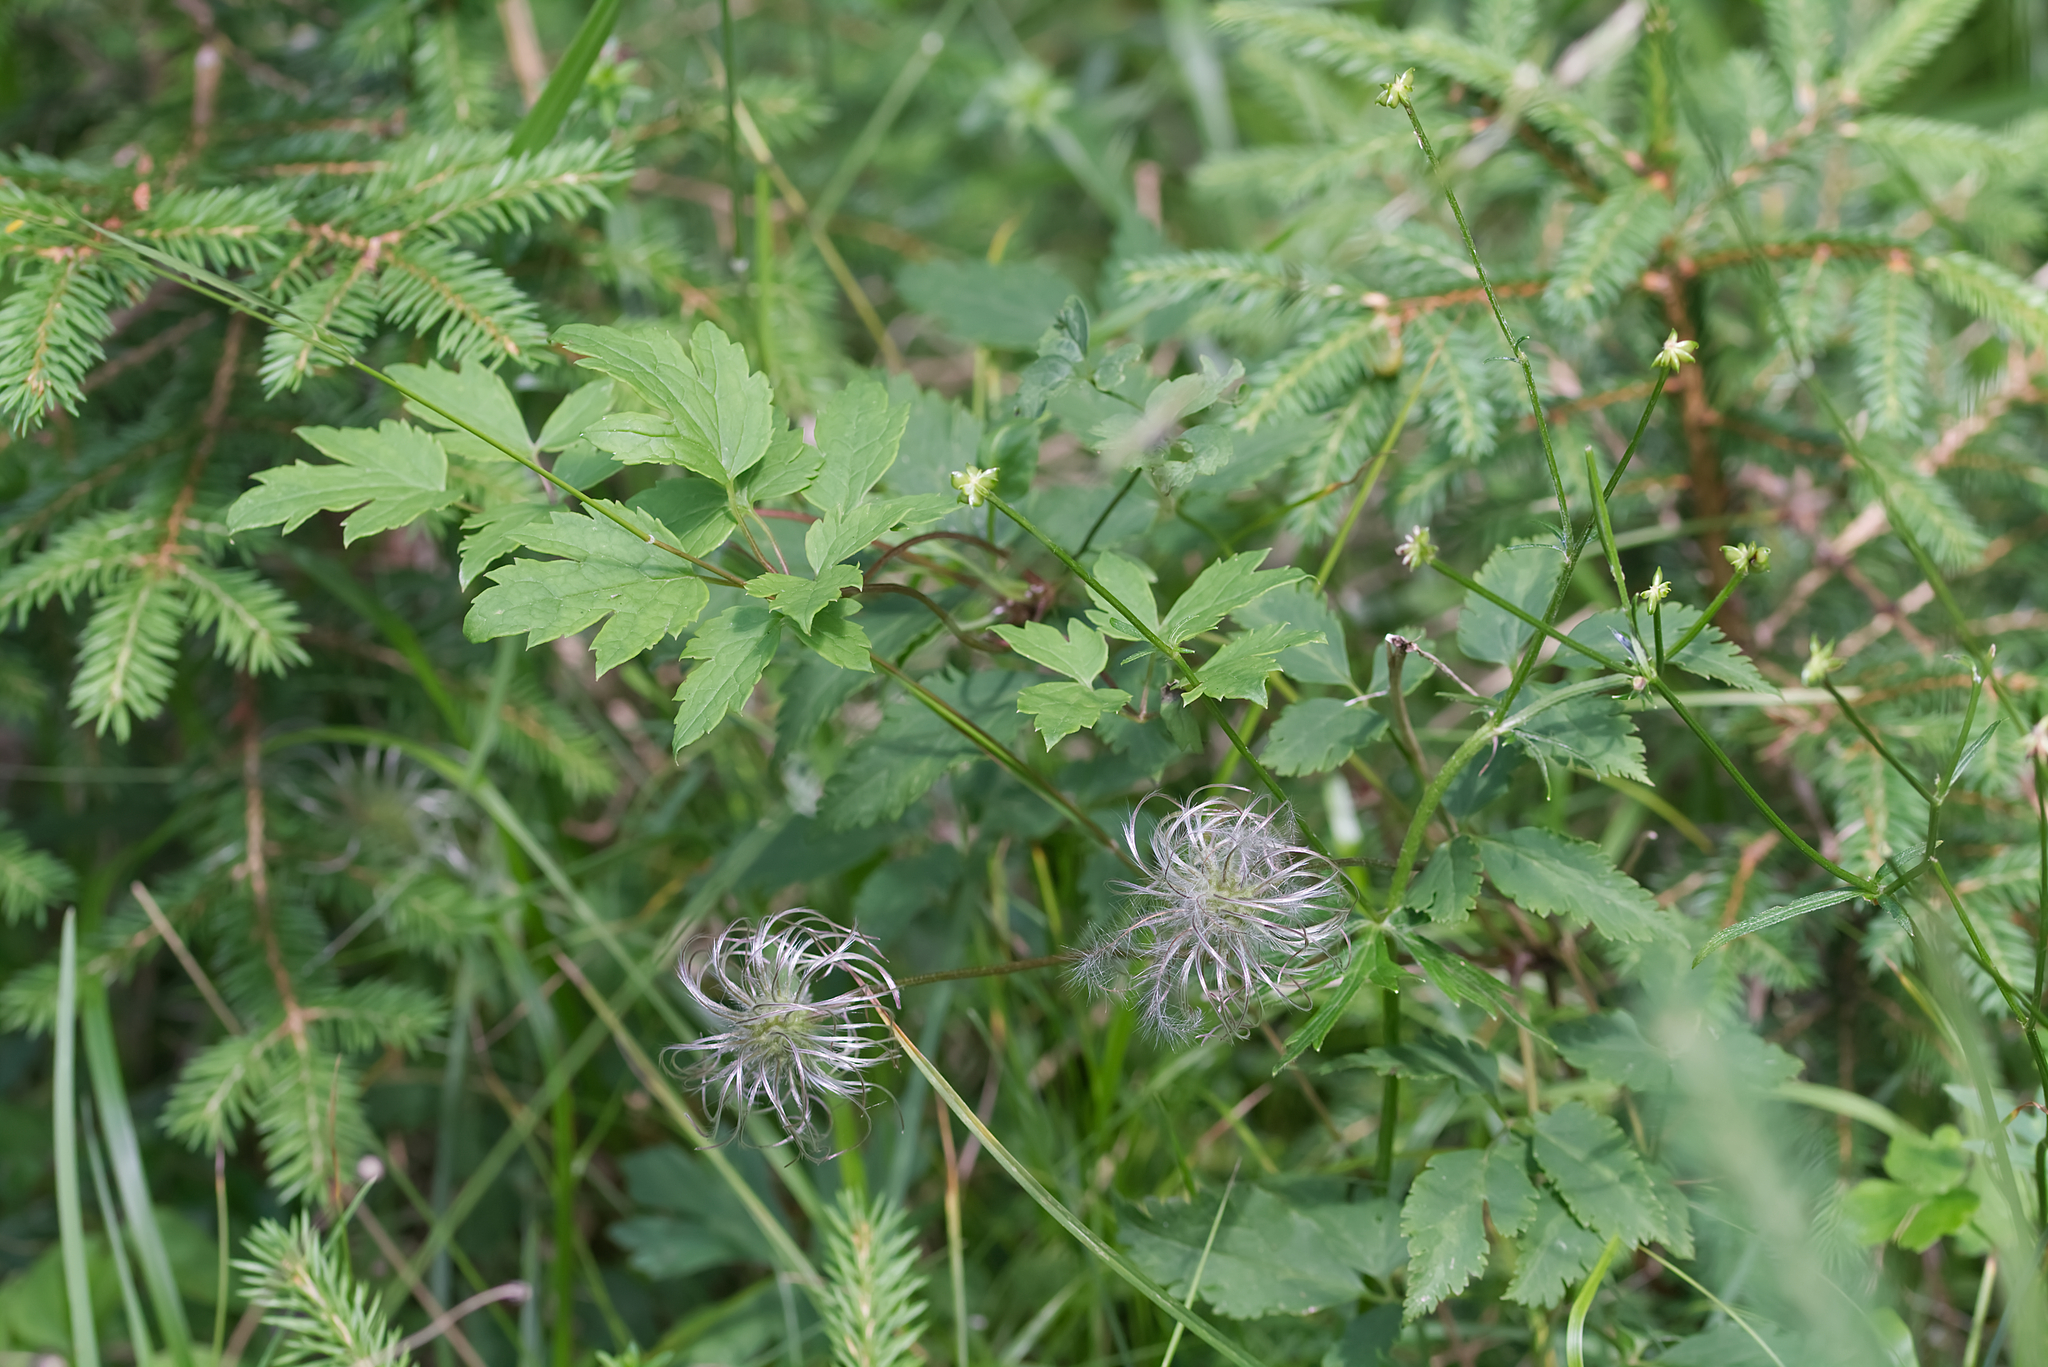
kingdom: Plantae
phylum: Tracheophyta
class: Magnoliopsida
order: Ranunculales
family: Ranunculaceae
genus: Clematis
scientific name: Clematis alpina
